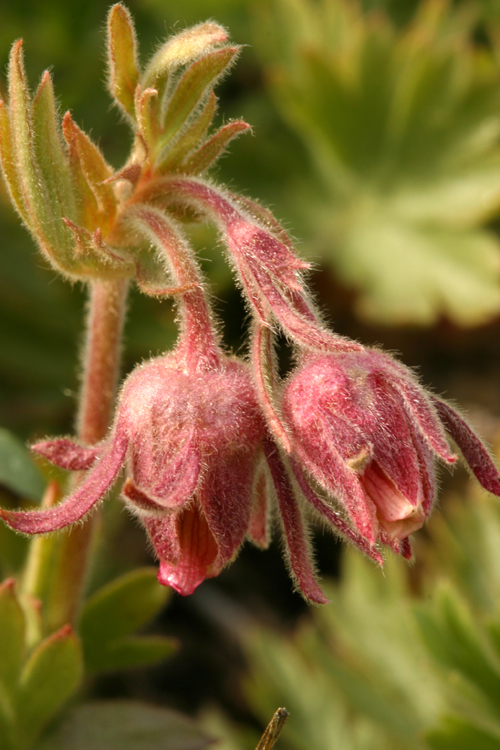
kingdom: Plantae
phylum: Tracheophyta
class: Magnoliopsida
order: Rosales
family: Rosaceae
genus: Geum
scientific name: Geum triflorum
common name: Old man's whiskers
